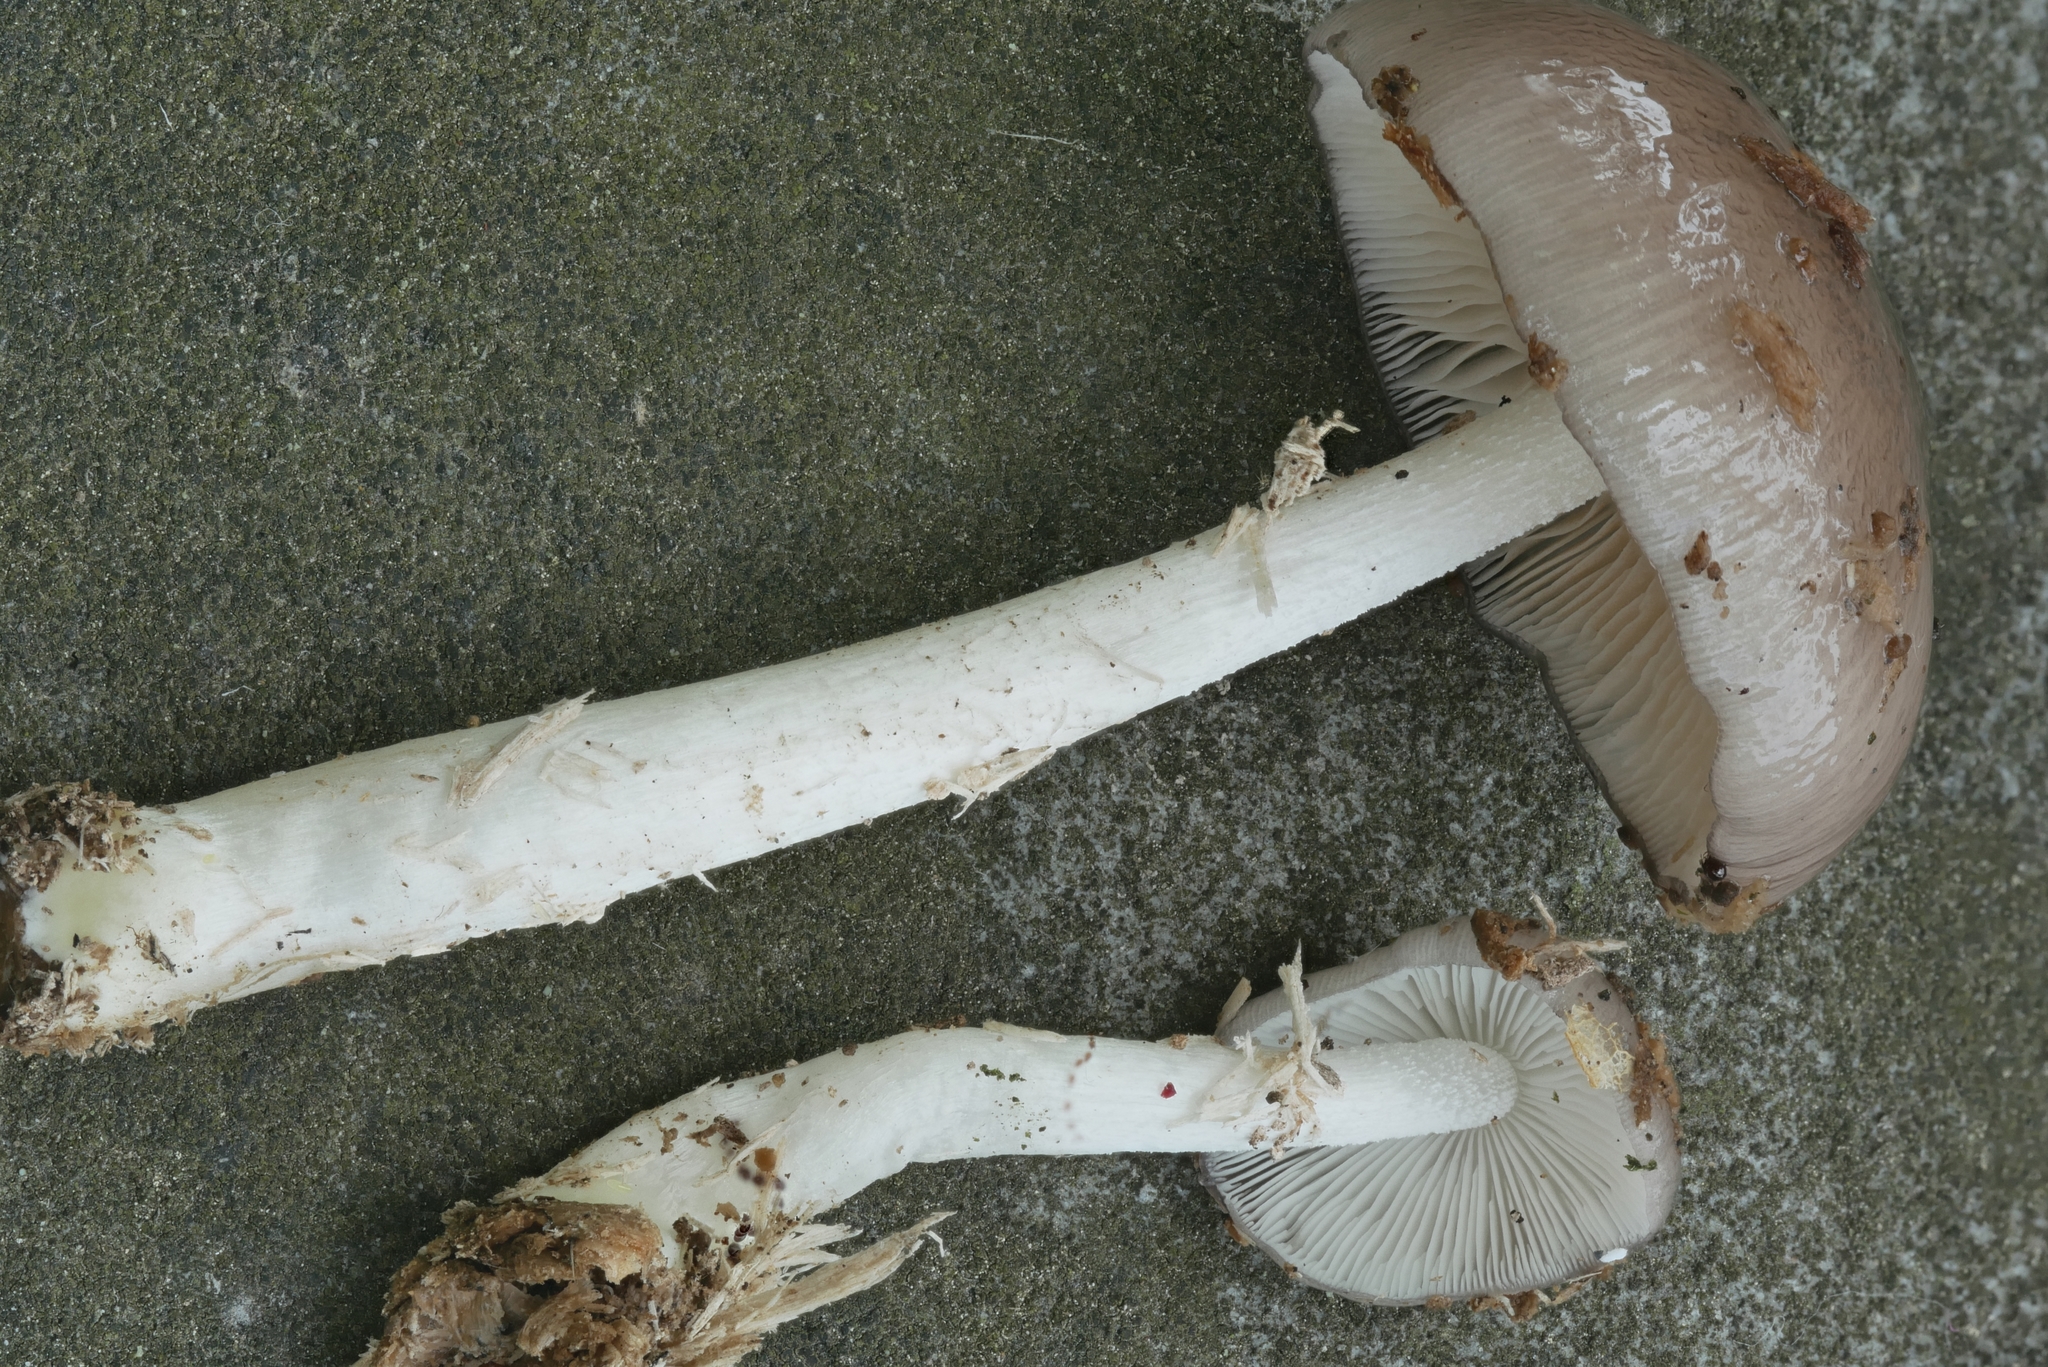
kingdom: Fungi
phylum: Basidiomycota
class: Agaricomycetes
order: Agaricales
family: Bolbitiaceae
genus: Bolbitius
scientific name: Bolbitius reticulatus
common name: Netted fieldcap
